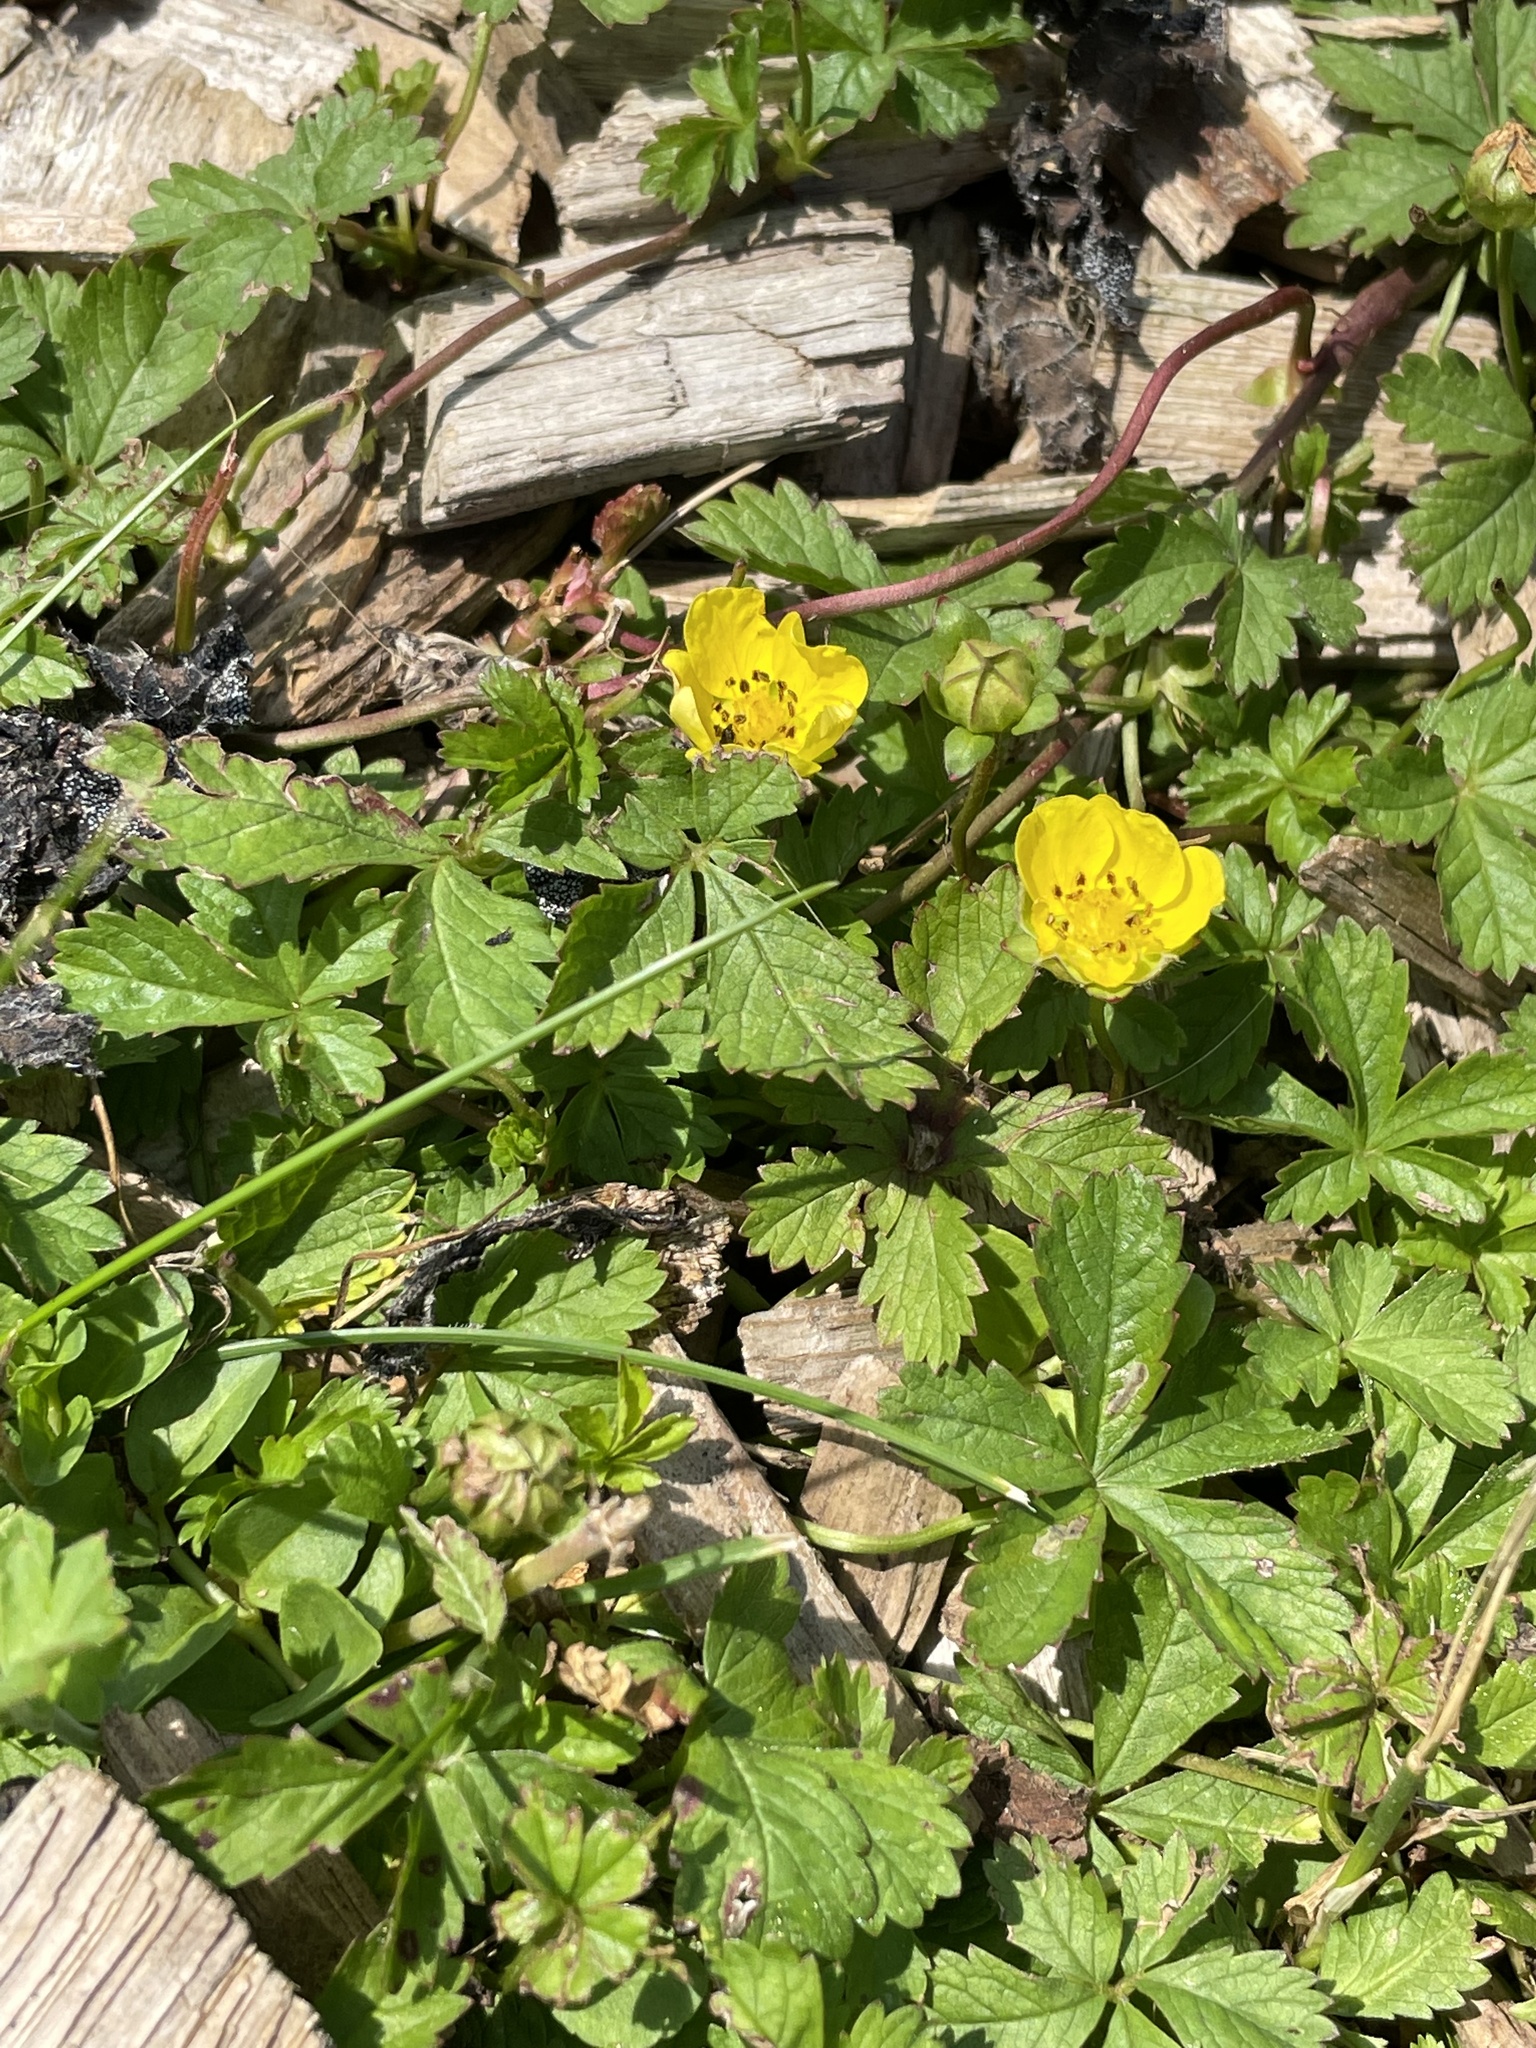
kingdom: Plantae
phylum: Tracheophyta
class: Magnoliopsida
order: Rosales
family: Rosaceae
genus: Potentilla
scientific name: Potentilla reptans
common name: Creeping cinquefoil
